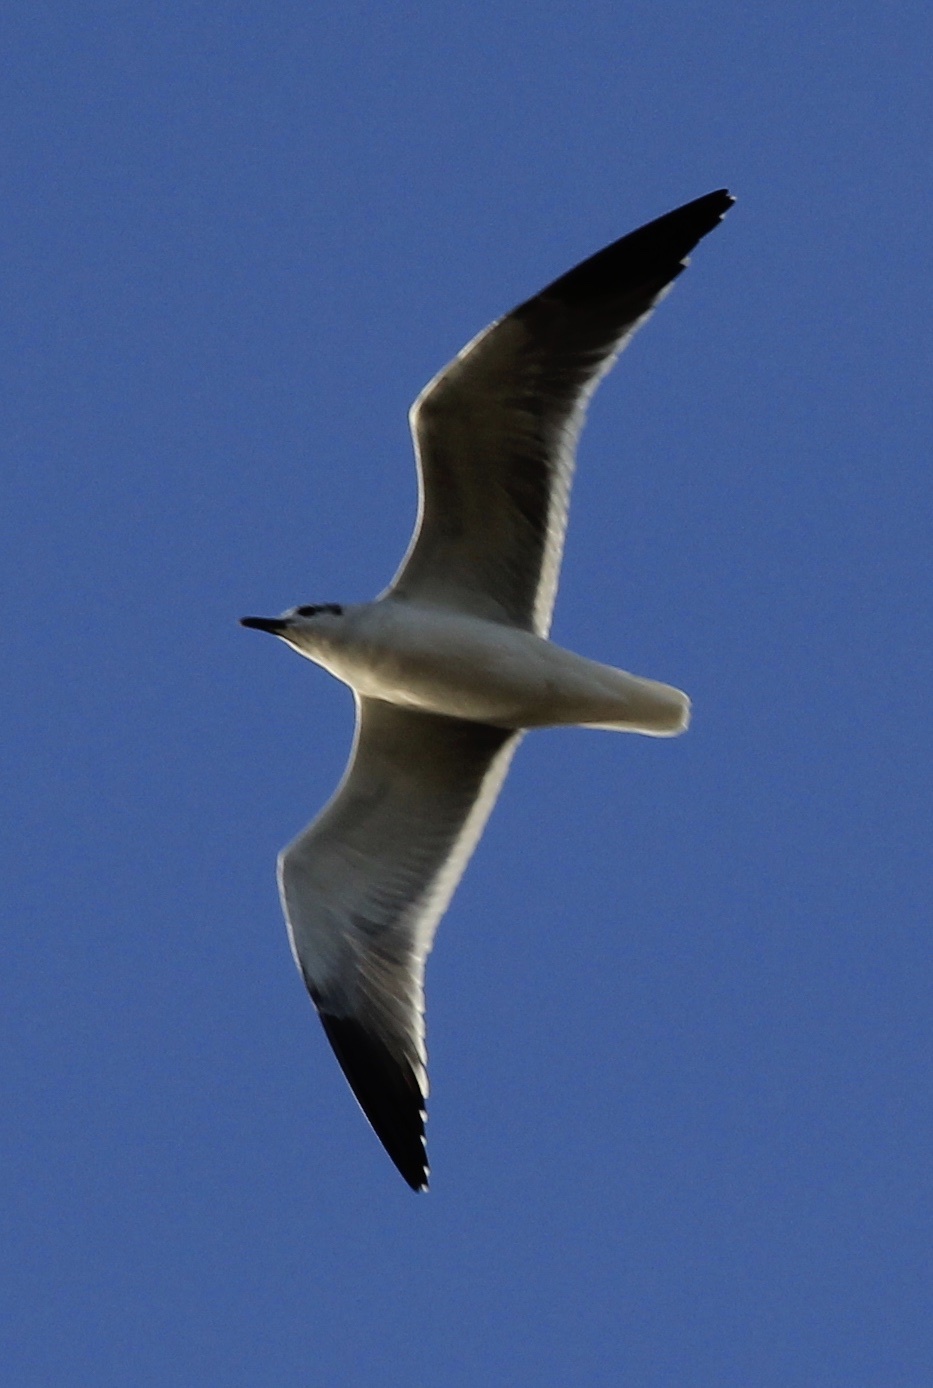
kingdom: Animalia
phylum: Chordata
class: Aves
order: Charadriiformes
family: Laridae
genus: Leucophaeus
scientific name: Leucophaeus atricilla
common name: Laughing gull
